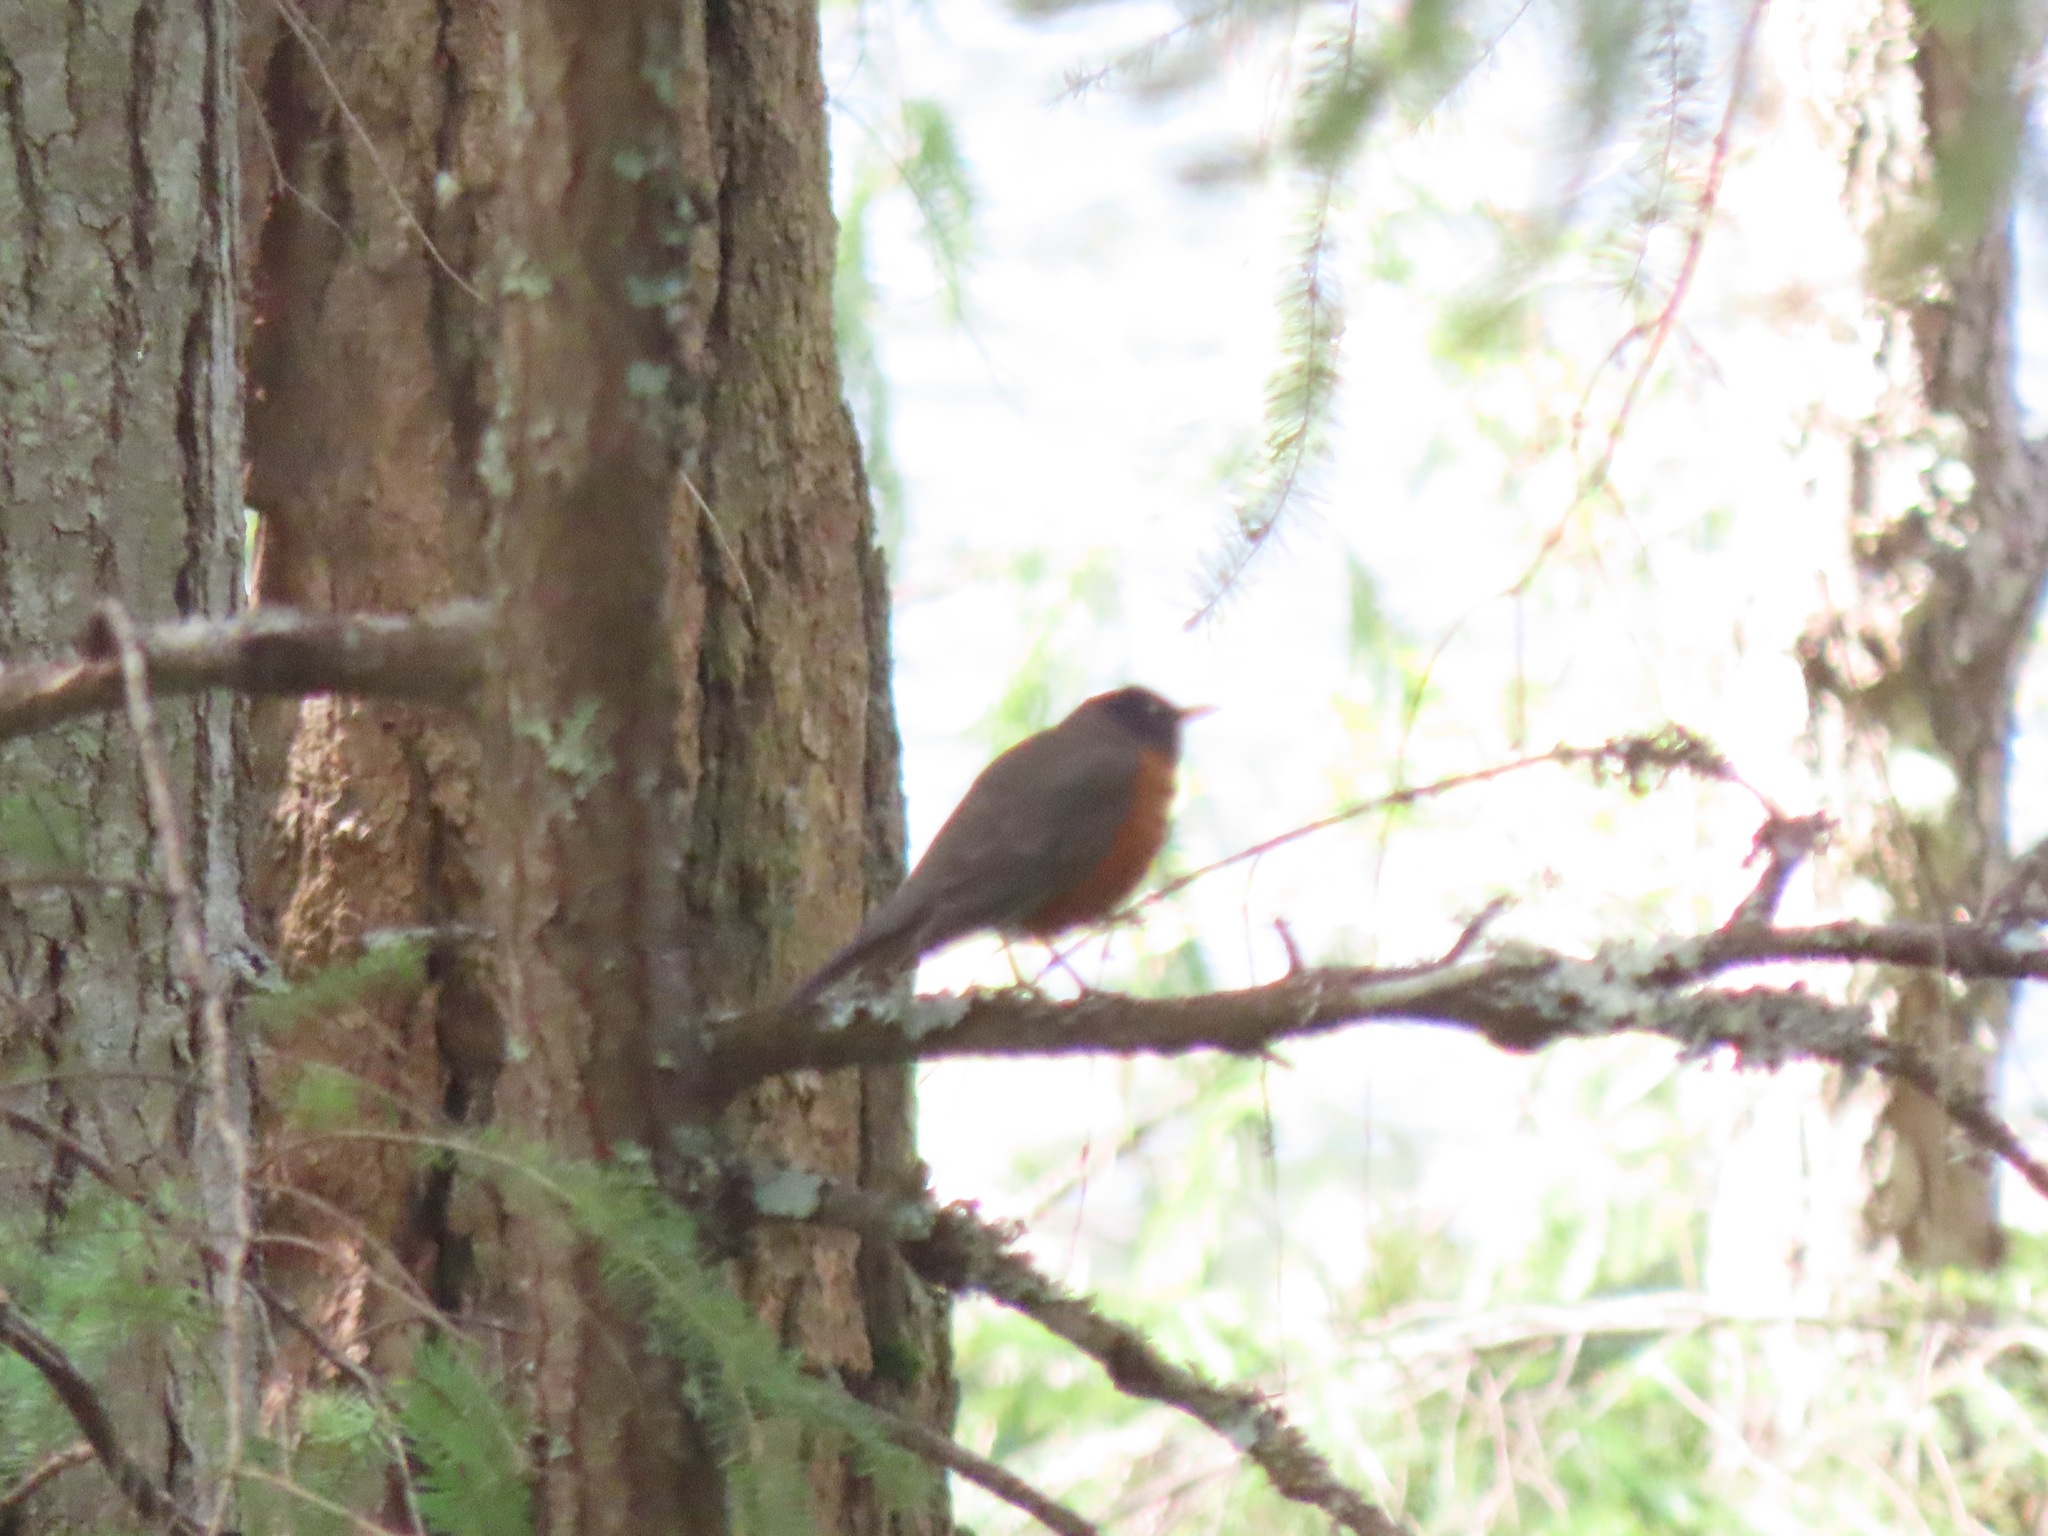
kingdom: Animalia
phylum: Chordata
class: Aves
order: Passeriformes
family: Turdidae
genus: Turdus
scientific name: Turdus migratorius
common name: American robin
